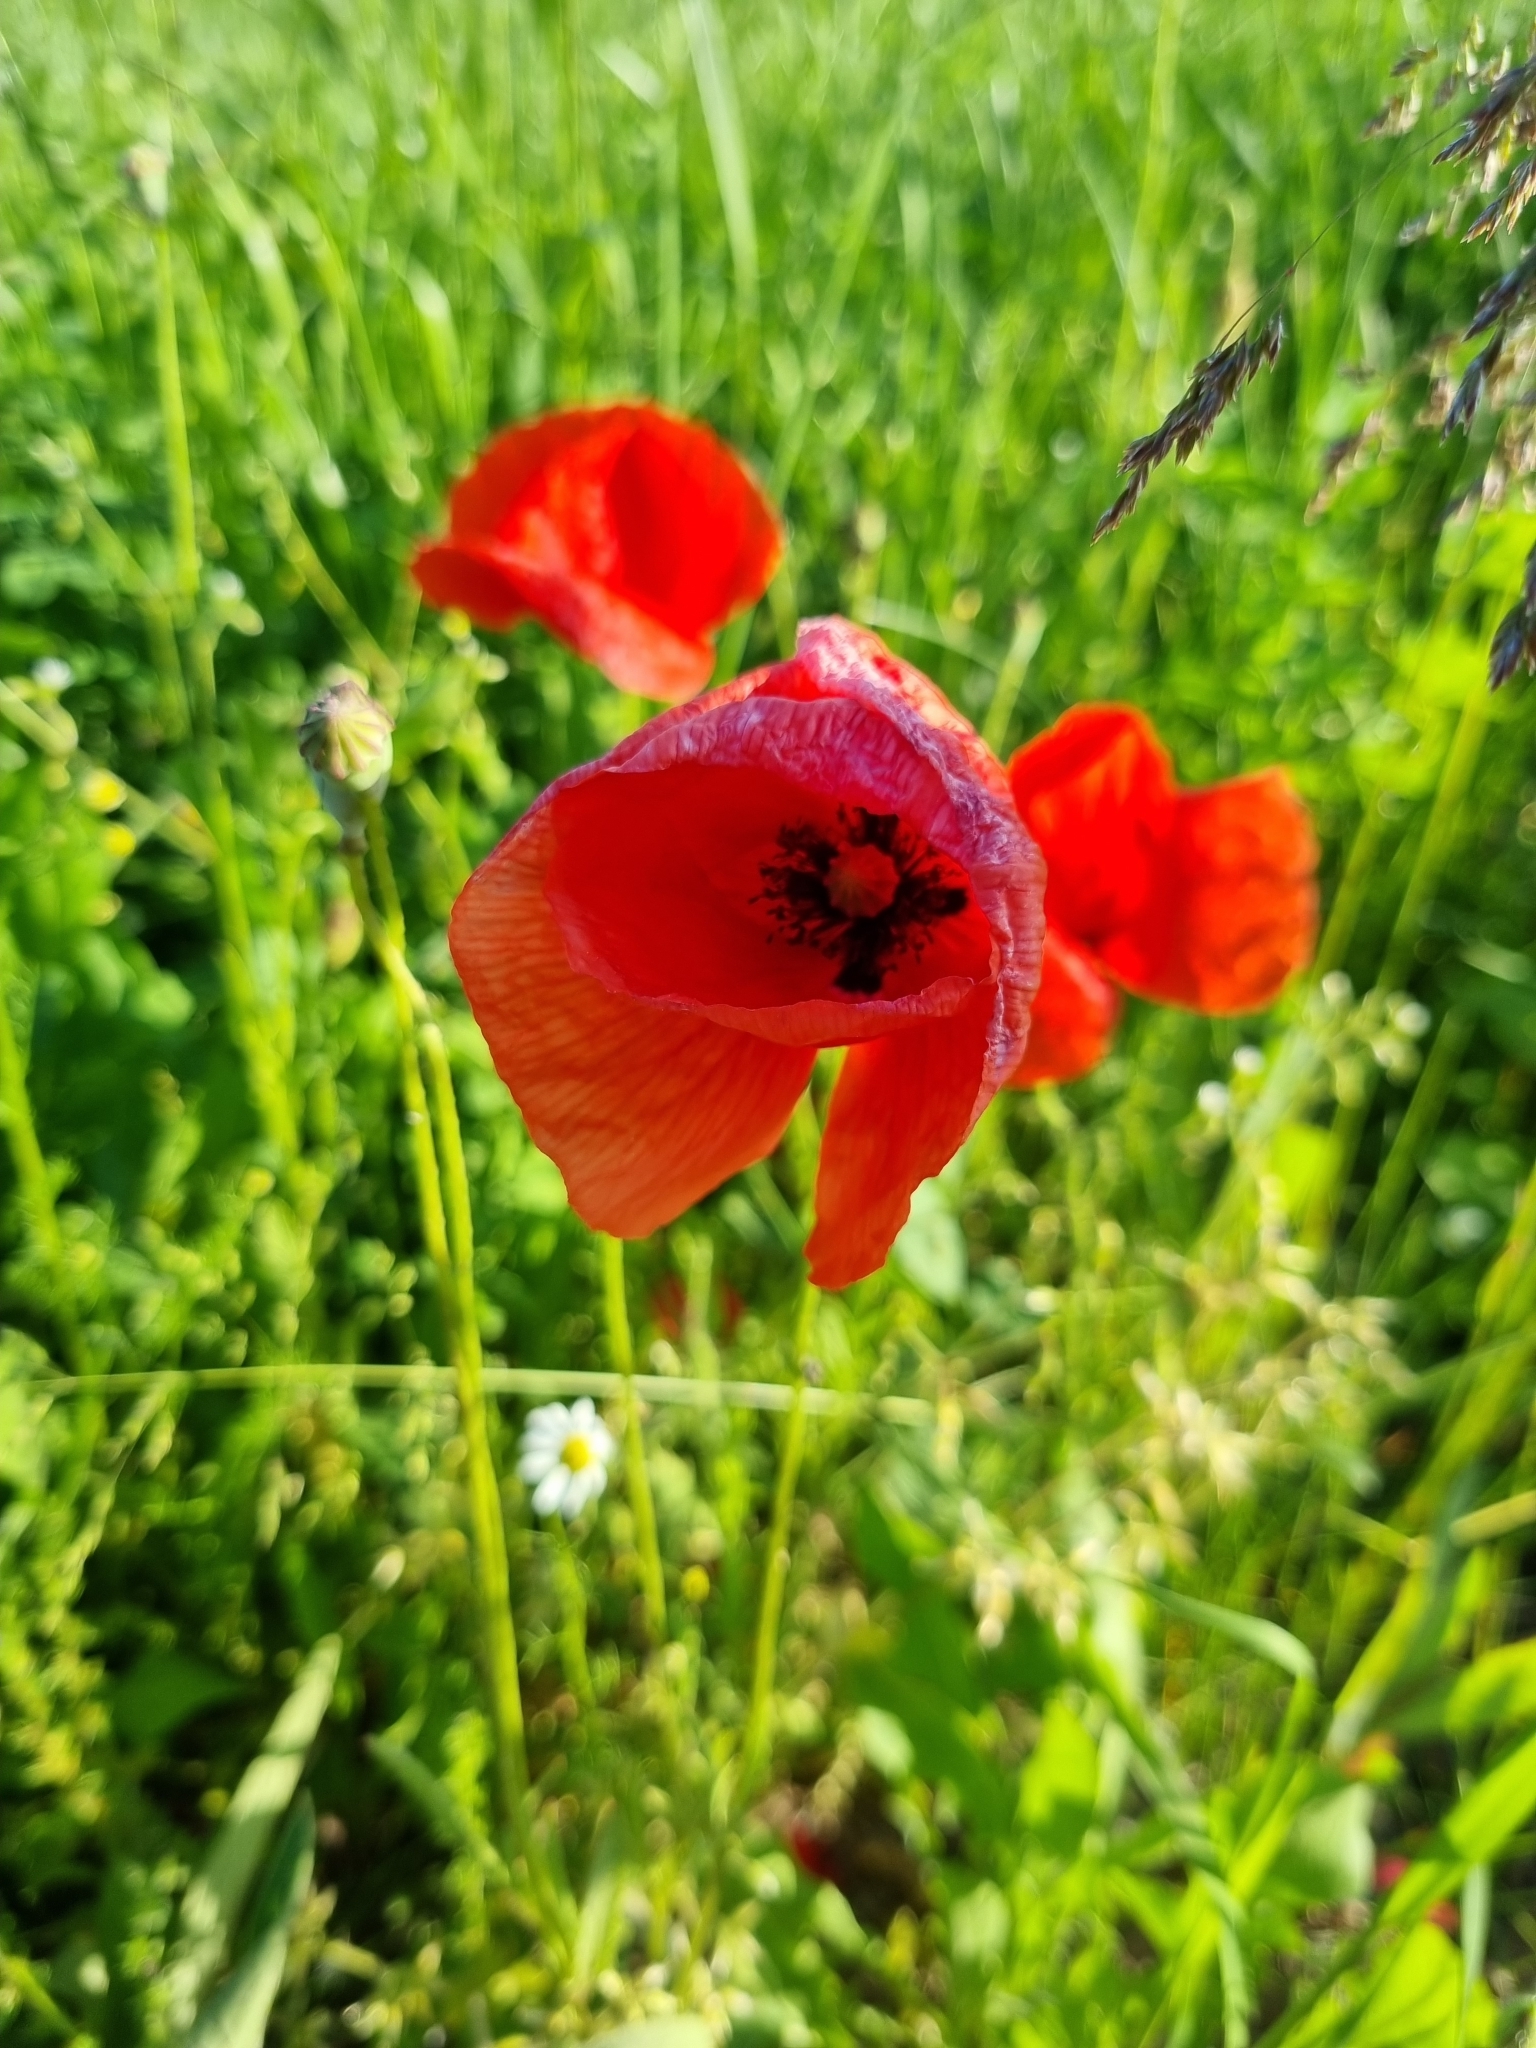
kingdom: Plantae
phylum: Tracheophyta
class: Magnoliopsida
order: Ranunculales
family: Papaveraceae
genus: Papaver
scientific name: Papaver rhoeas
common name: Corn poppy
